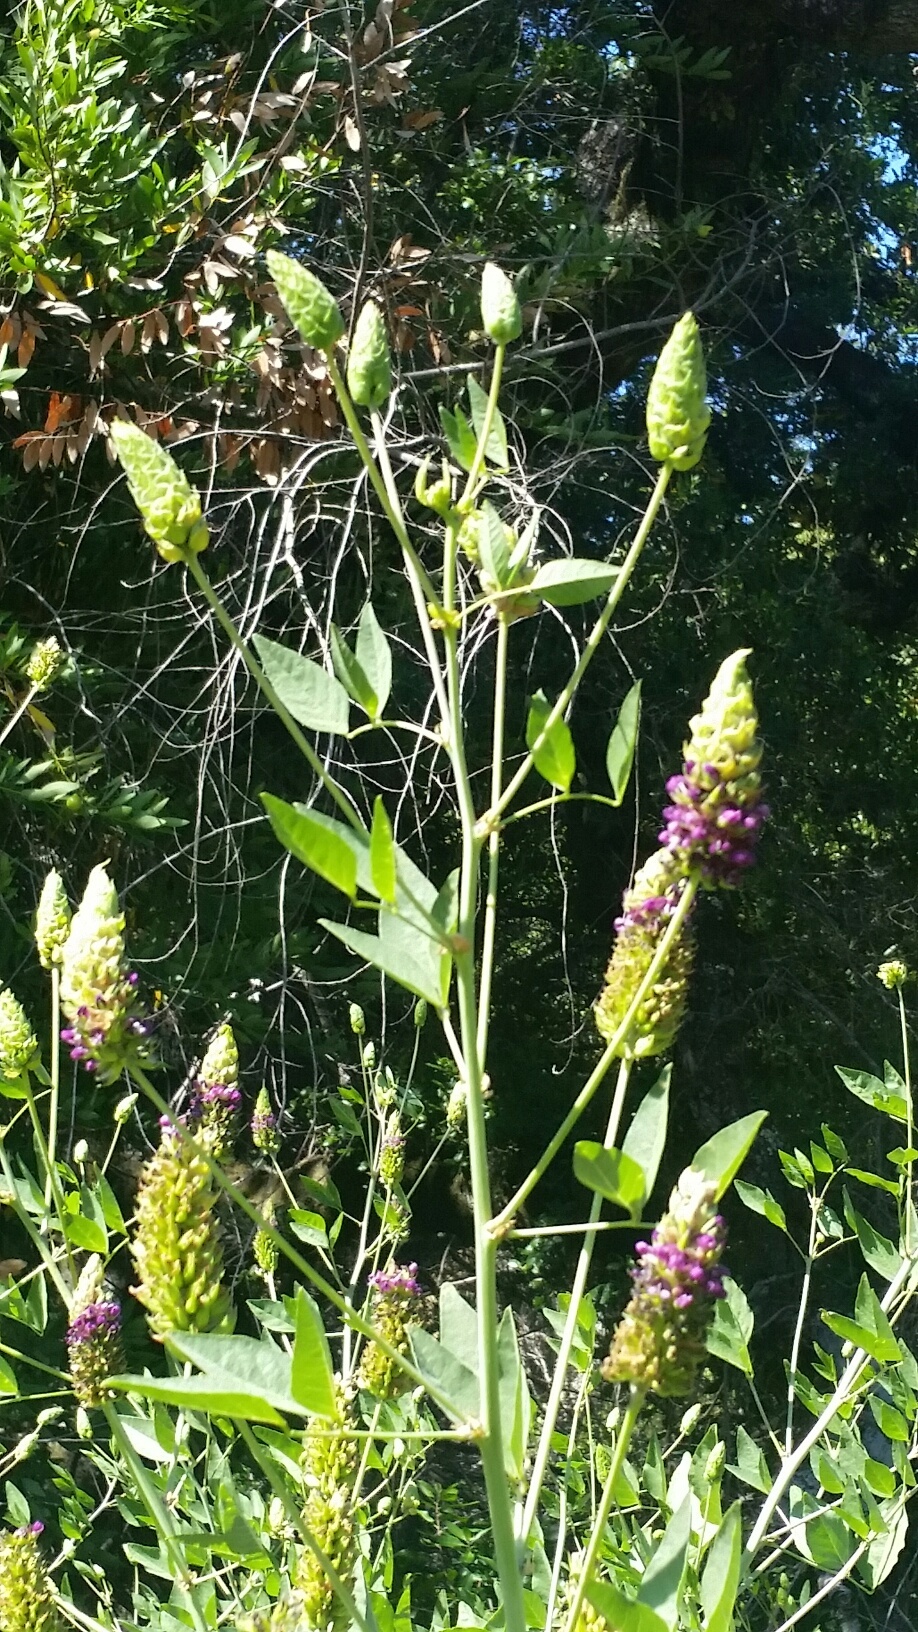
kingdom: Plantae
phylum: Tracheophyta
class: Magnoliopsida
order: Fabales
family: Fabaceae
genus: Hoita
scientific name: Hoita macrostachya
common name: Leatherroot
